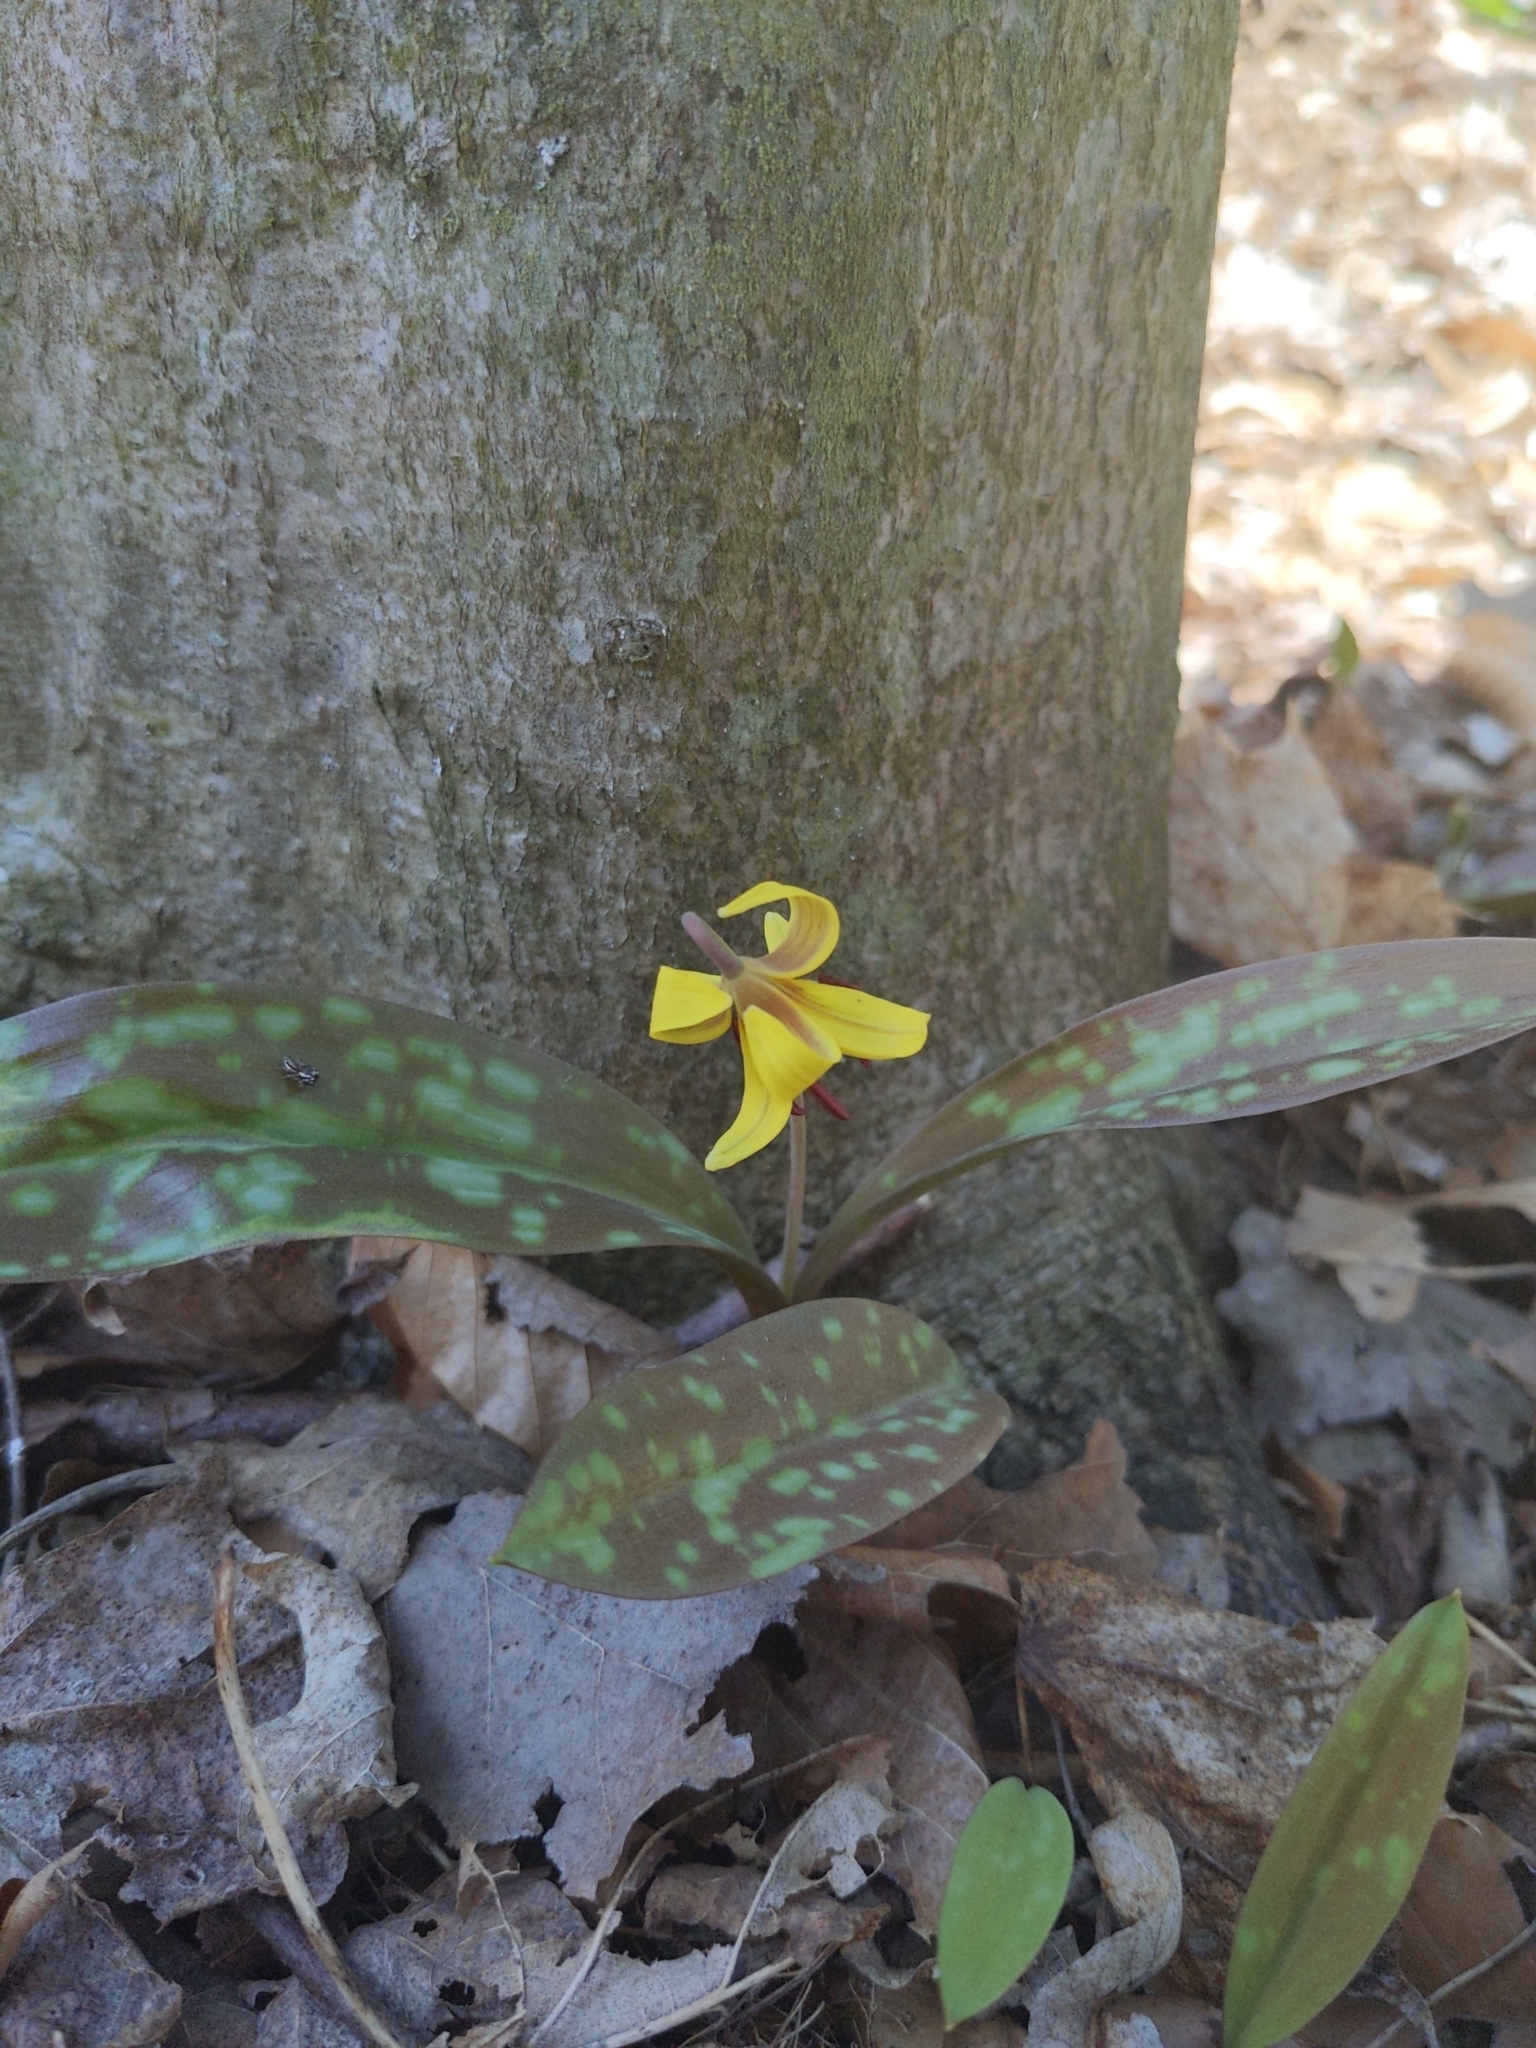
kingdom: Plantae
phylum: Tracheophyta
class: Liliopsida
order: Liliales
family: Liliaceae
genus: Erythronium
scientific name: Erythronium americanum
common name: Yellow adder's-tongue
